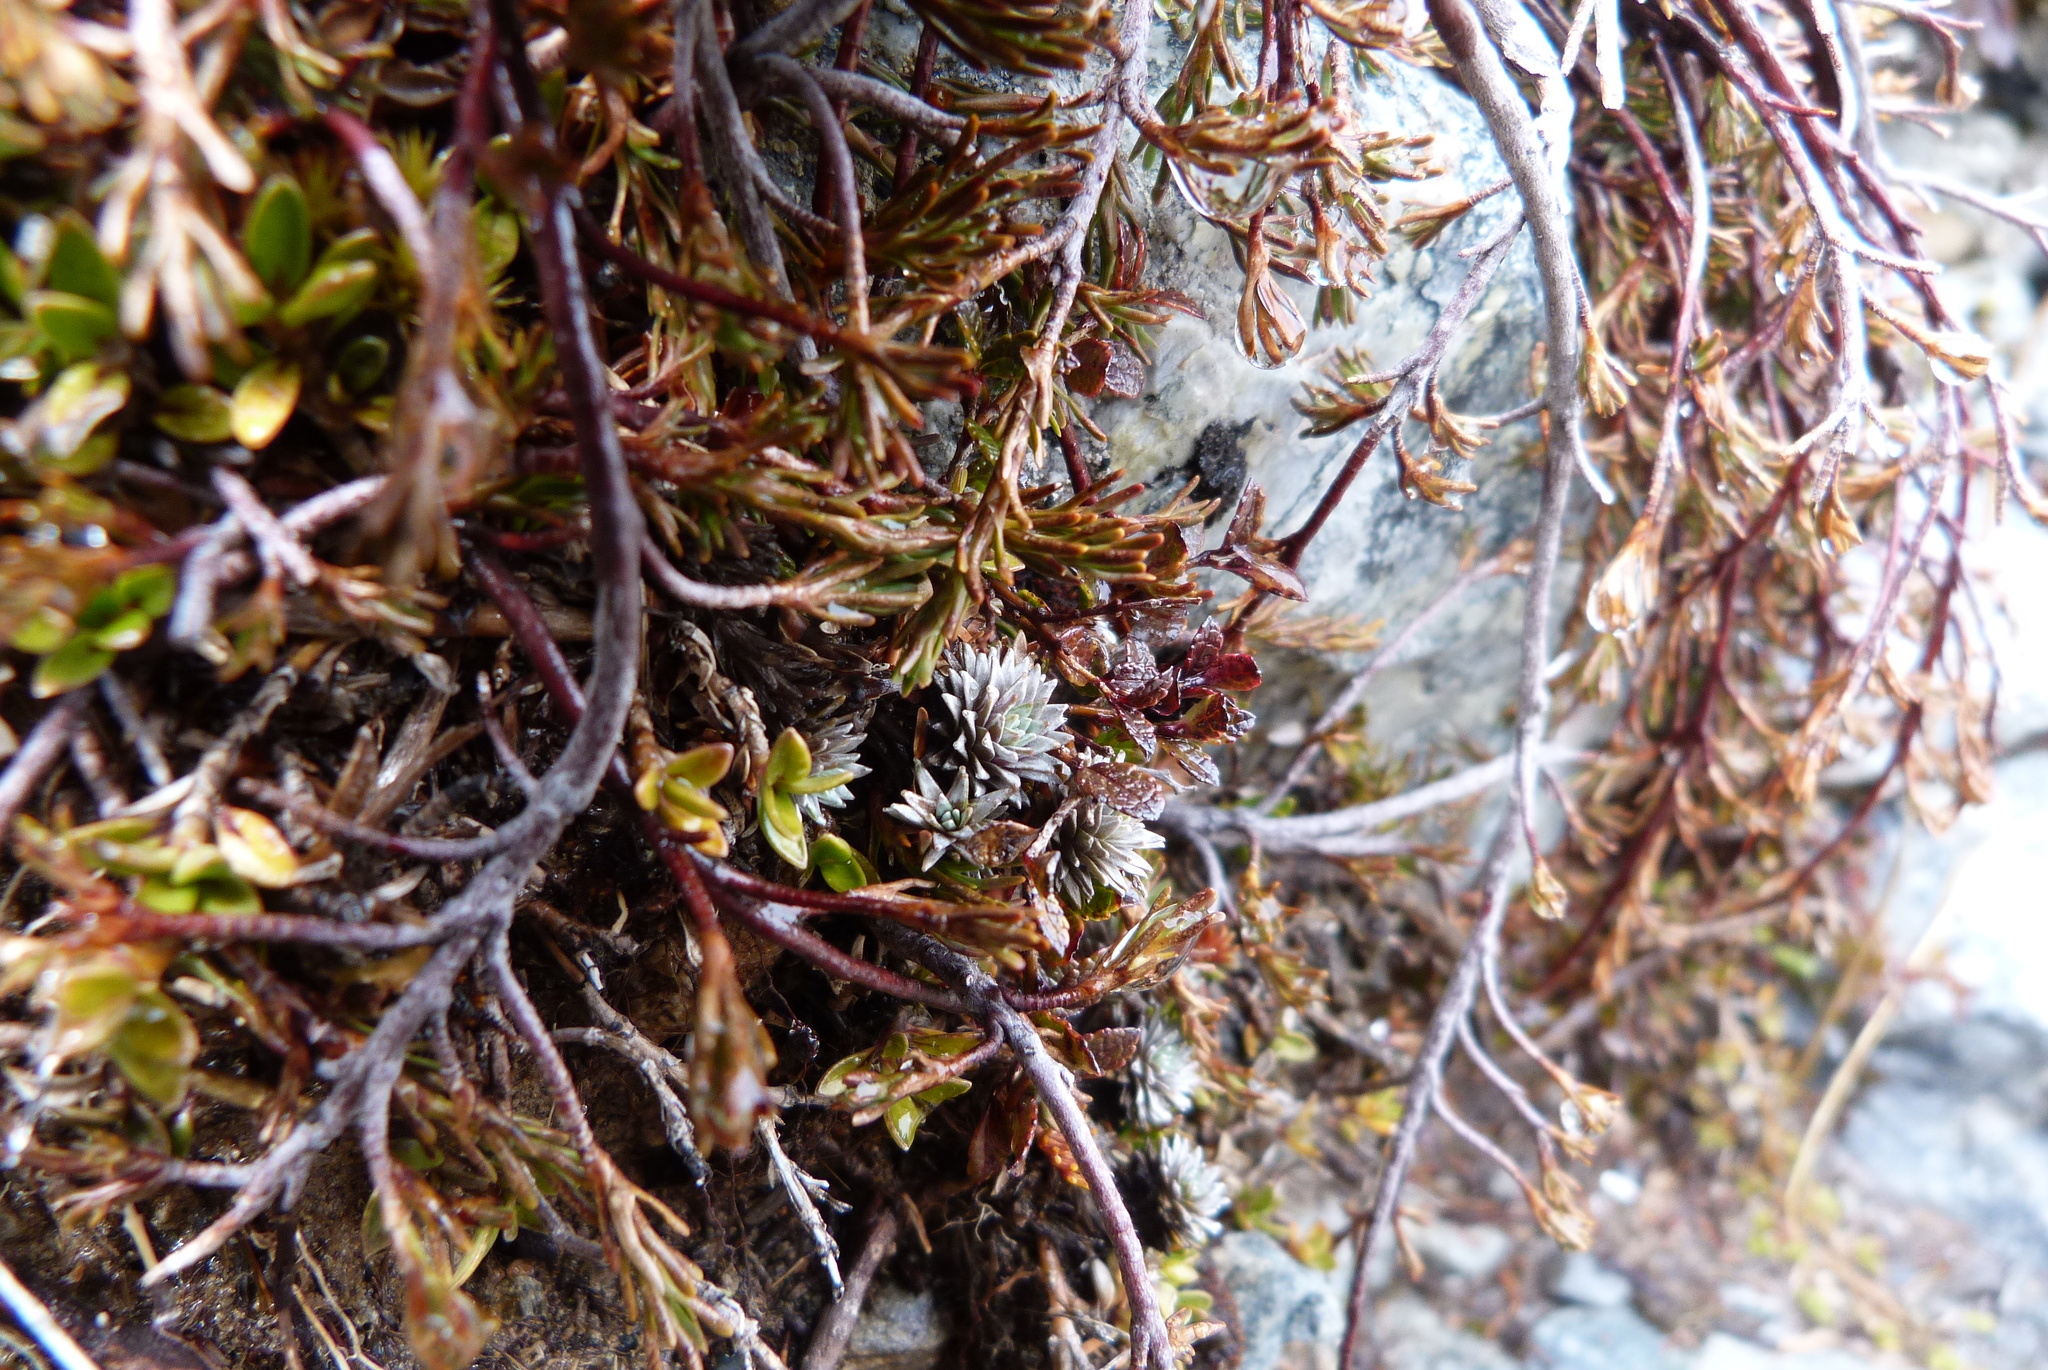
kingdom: Plantae
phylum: Tracheophyta
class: Magnoliopsida
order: Asterales
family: Asteraceae
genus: Raoulia
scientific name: Raoulia grandiflora
